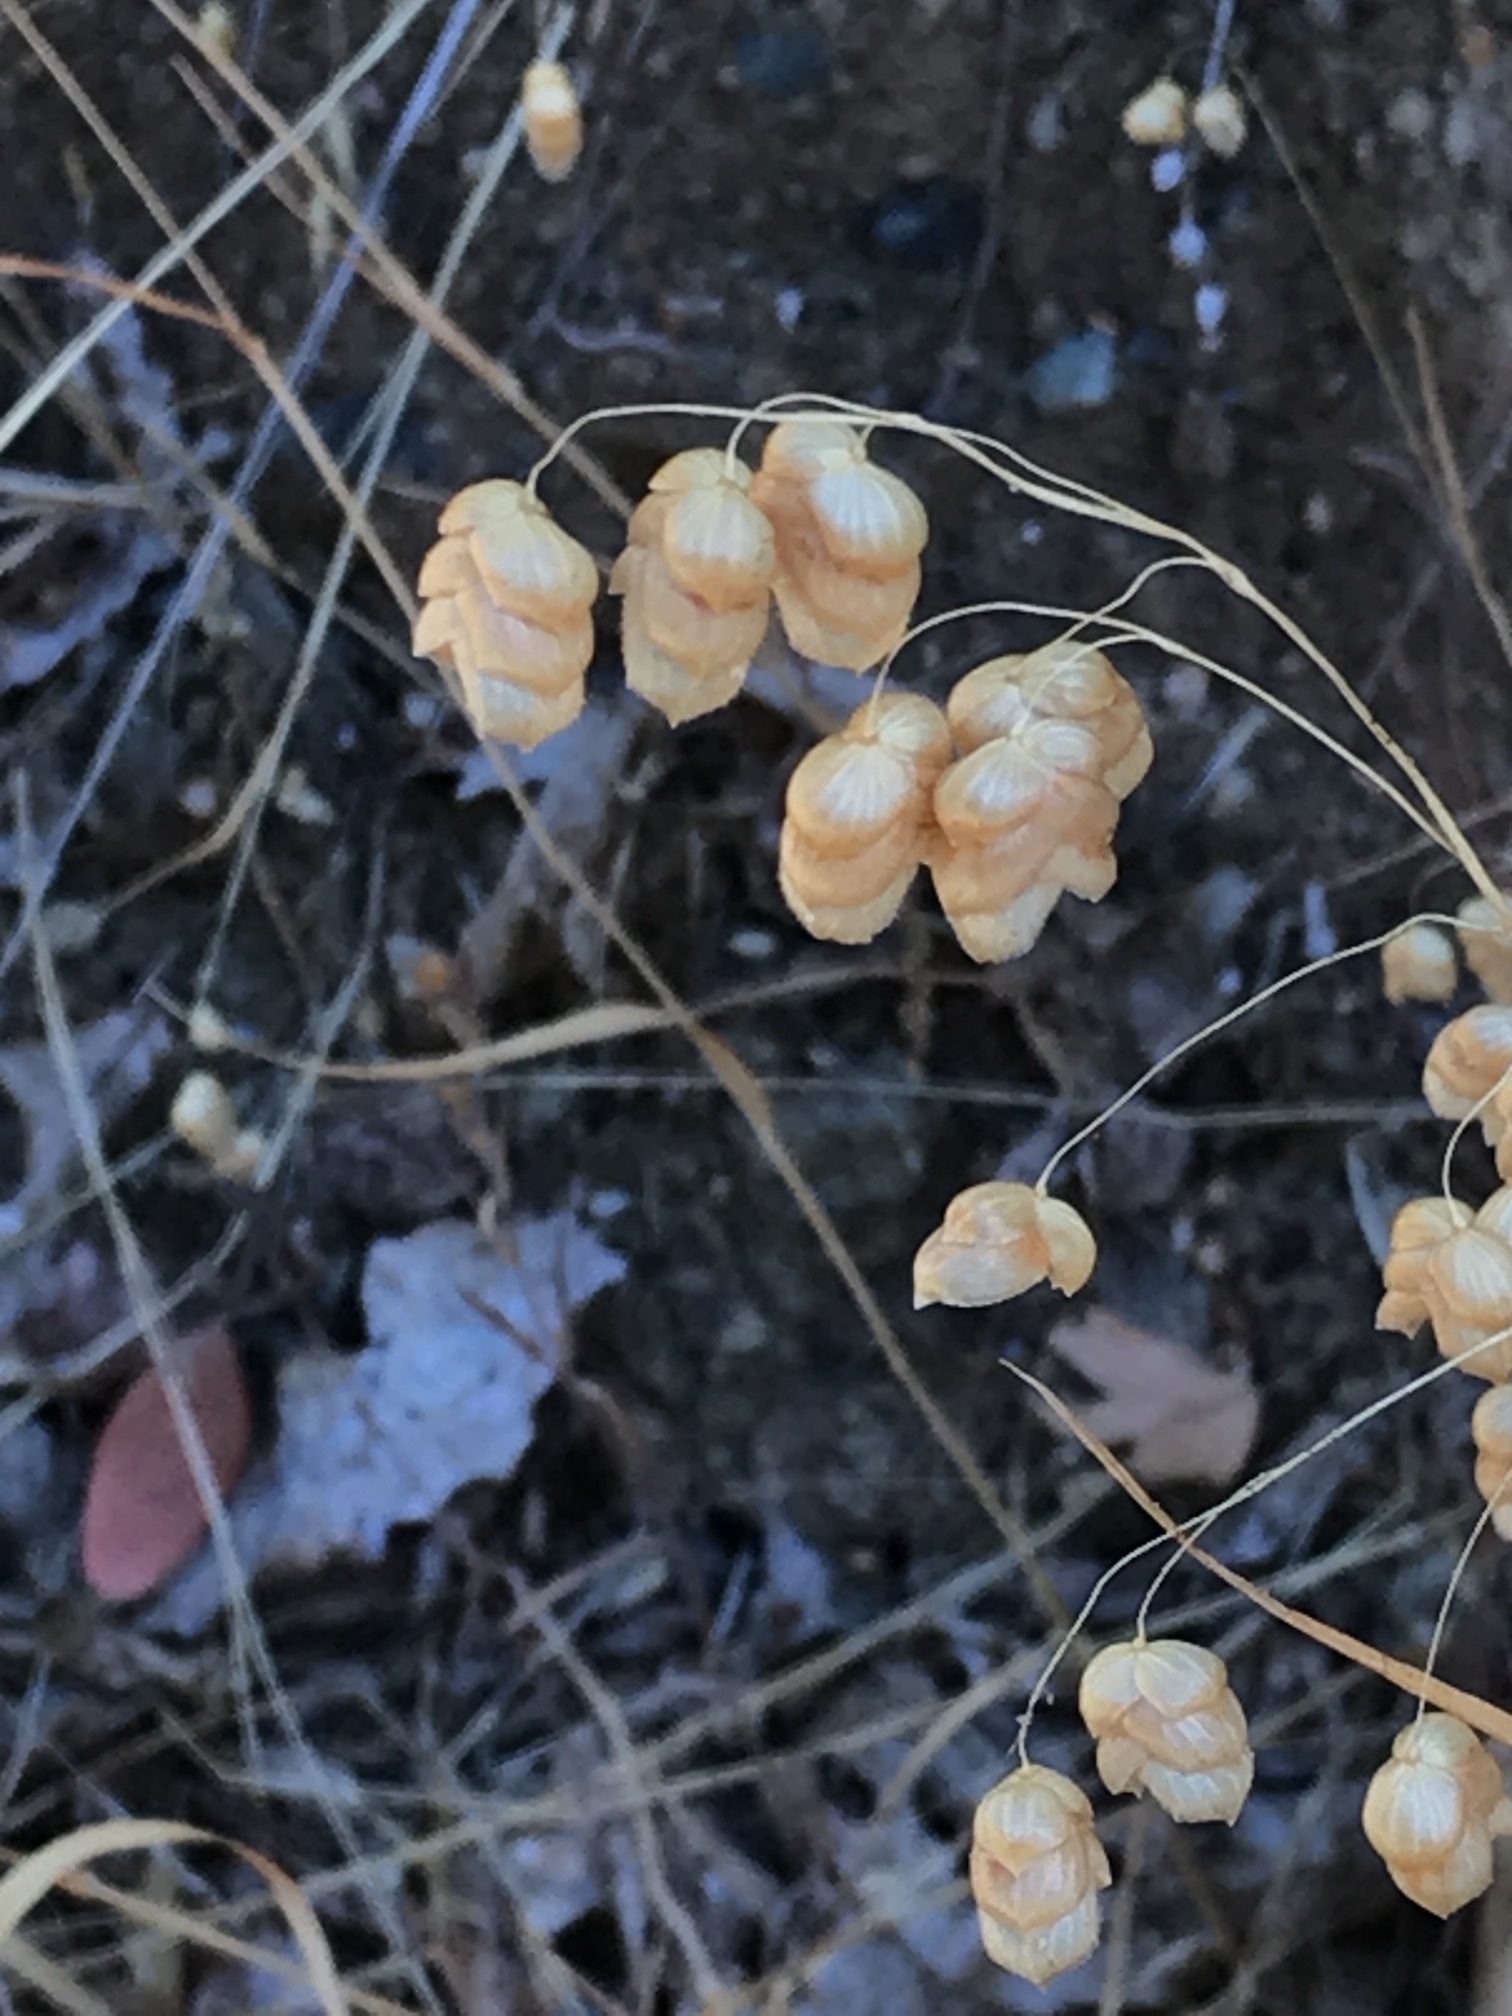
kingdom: Plantae
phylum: Tracheophyta
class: Liliopsida
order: Poales
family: Poaceae
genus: Briza
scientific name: Briza maxima
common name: Big quakinggrass
